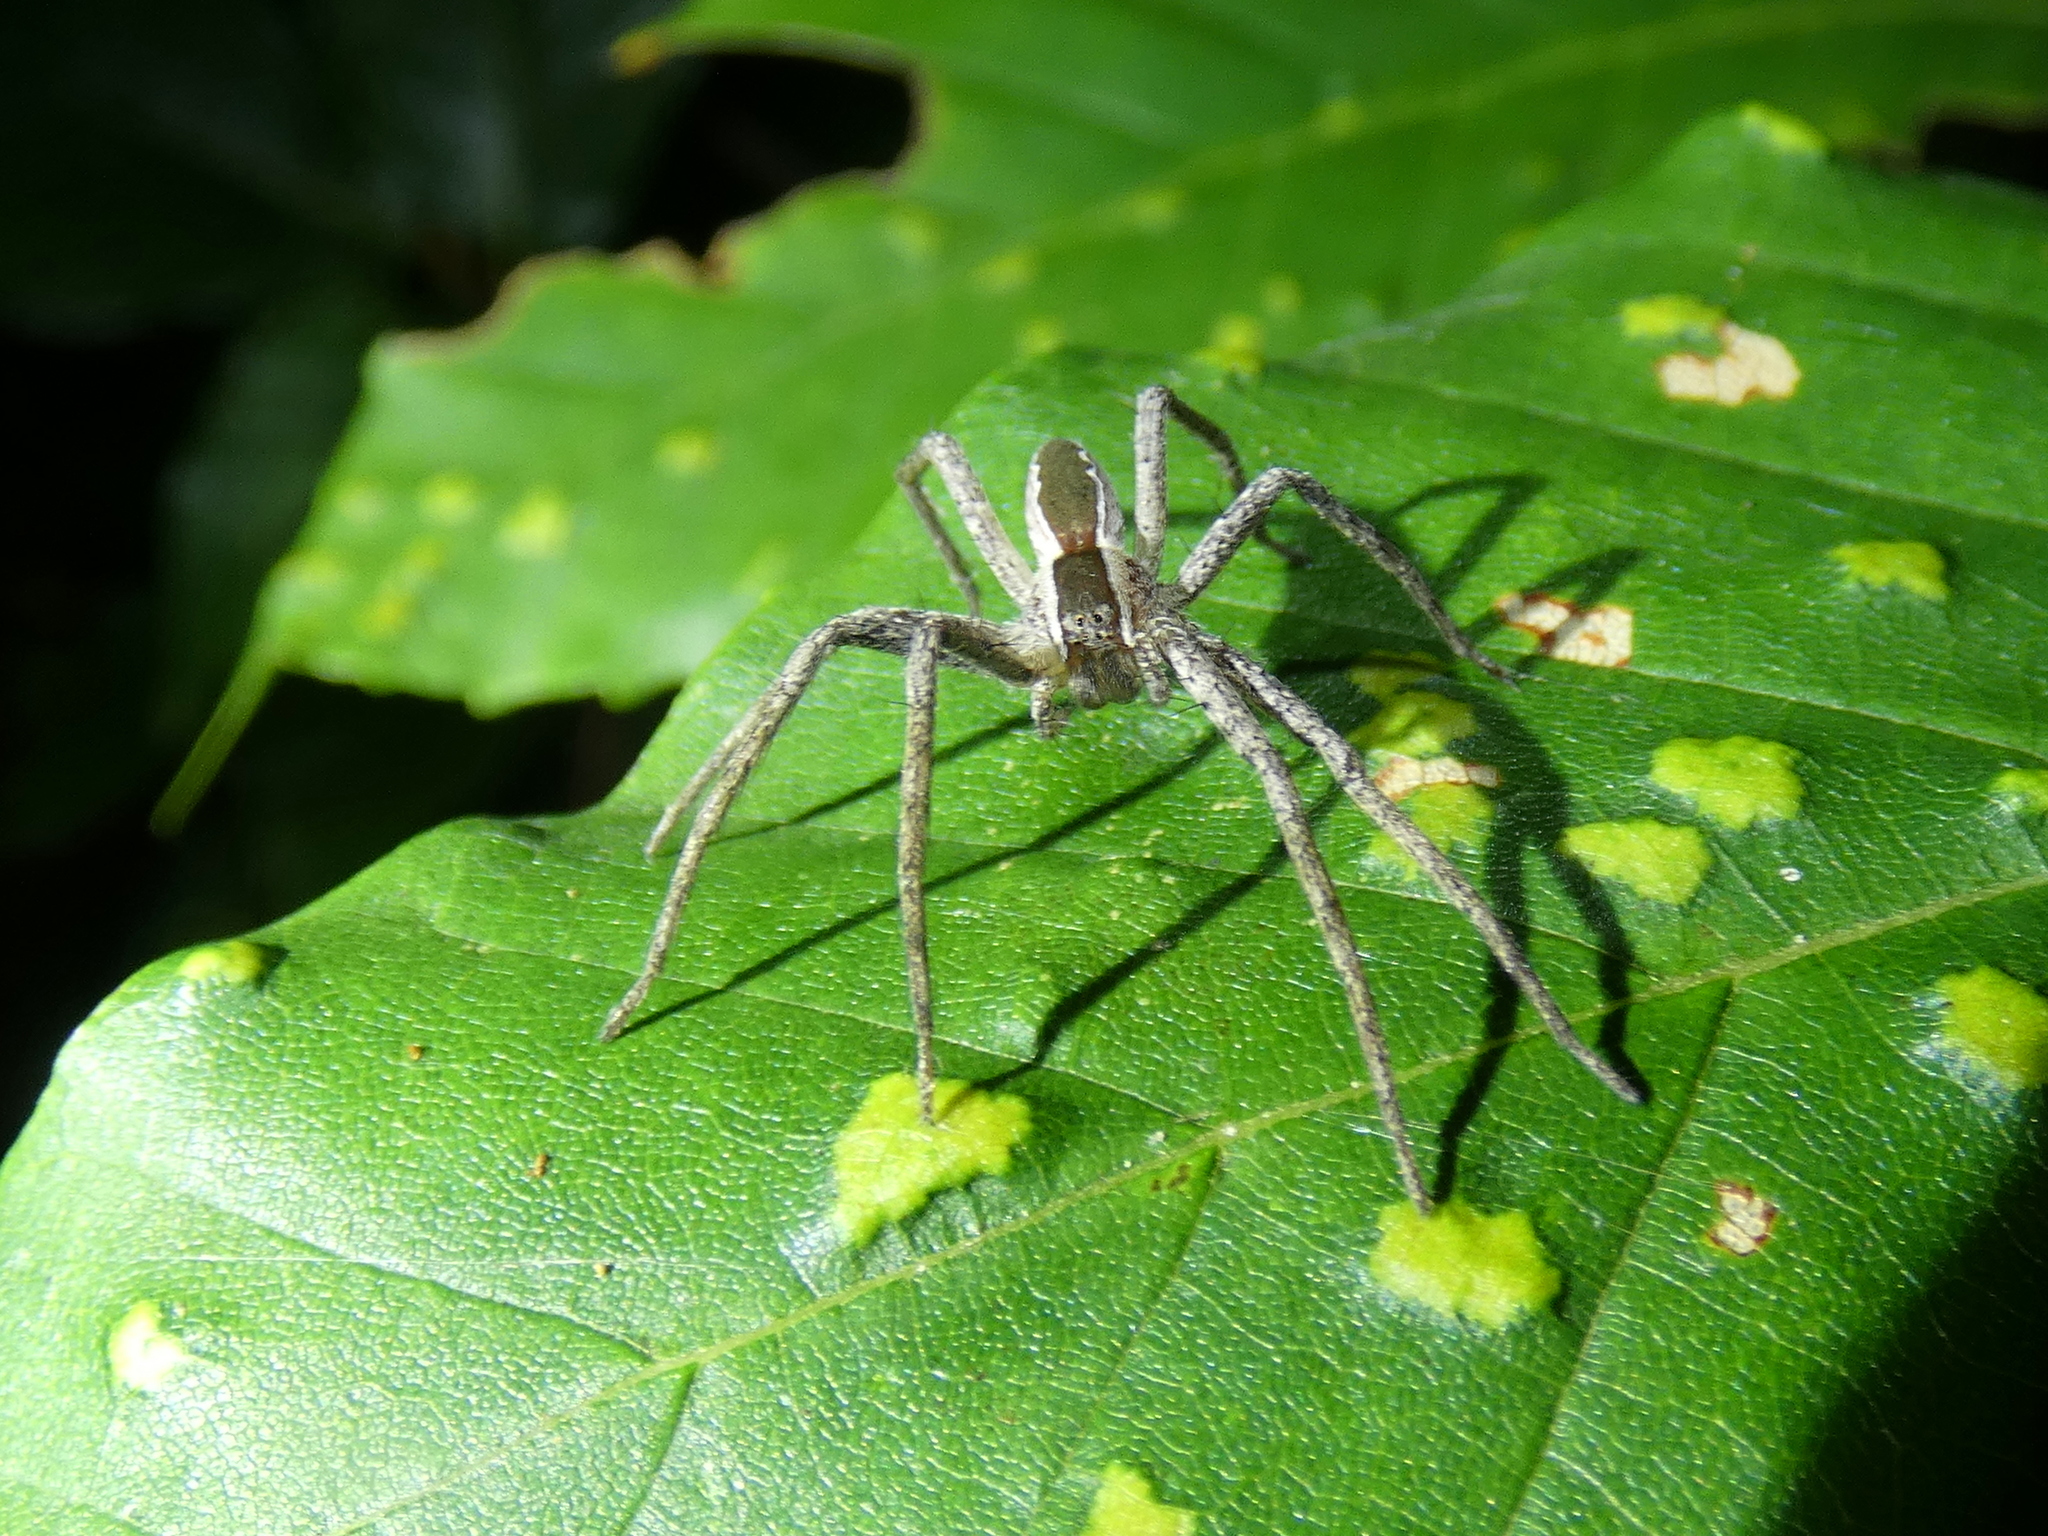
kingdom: Animalia
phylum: Arthropoda
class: Arachnida
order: Araneae
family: Pisauridae
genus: Pisaurina
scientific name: Pisaurina mira
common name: American nursery web spider
